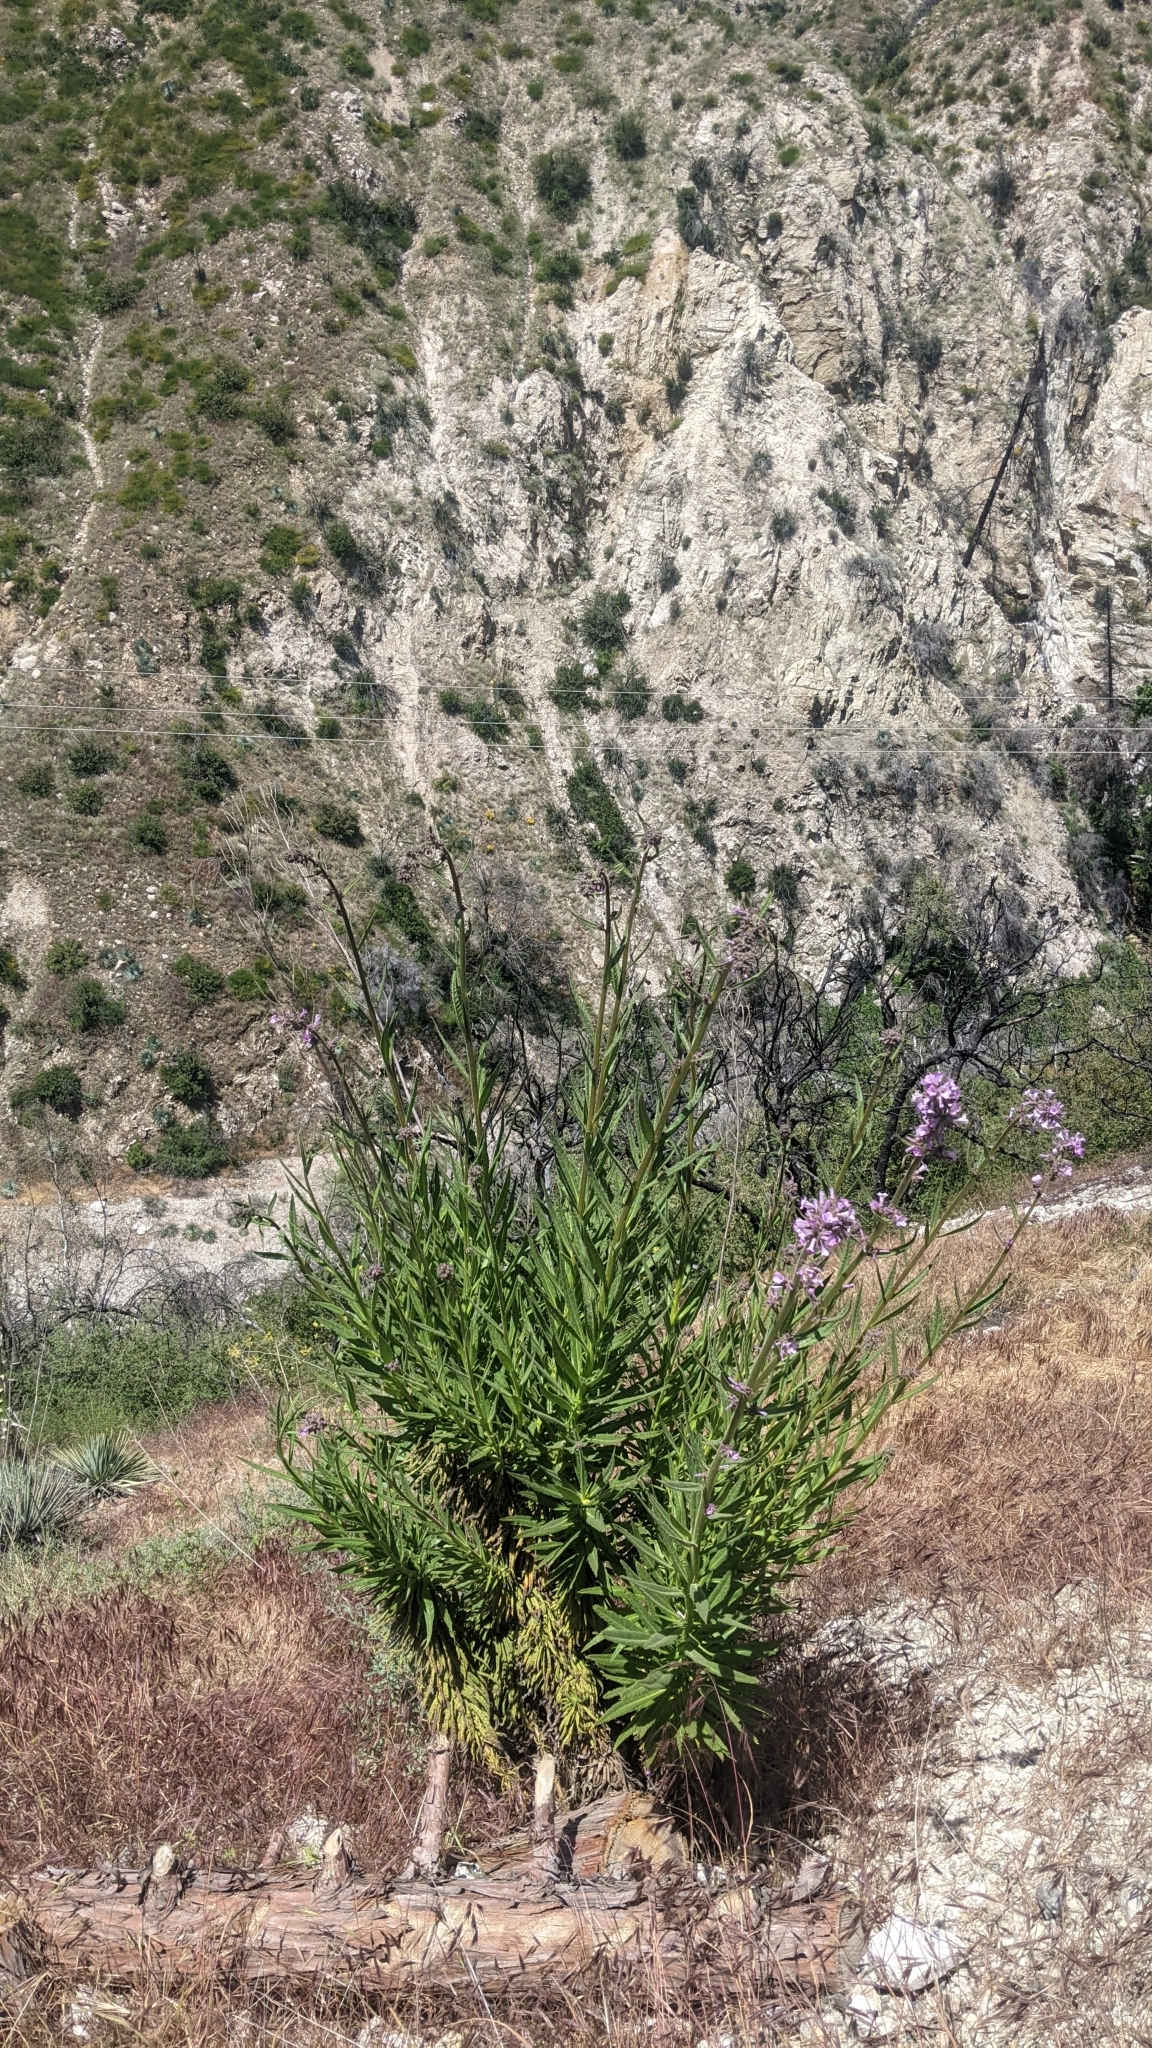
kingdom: Plantae
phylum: Tracheophyta
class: Magnoliopsida
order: Boraginales
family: Namaceae
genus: Turricula
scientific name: Turricula parryi
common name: Poodle-dog-bush
